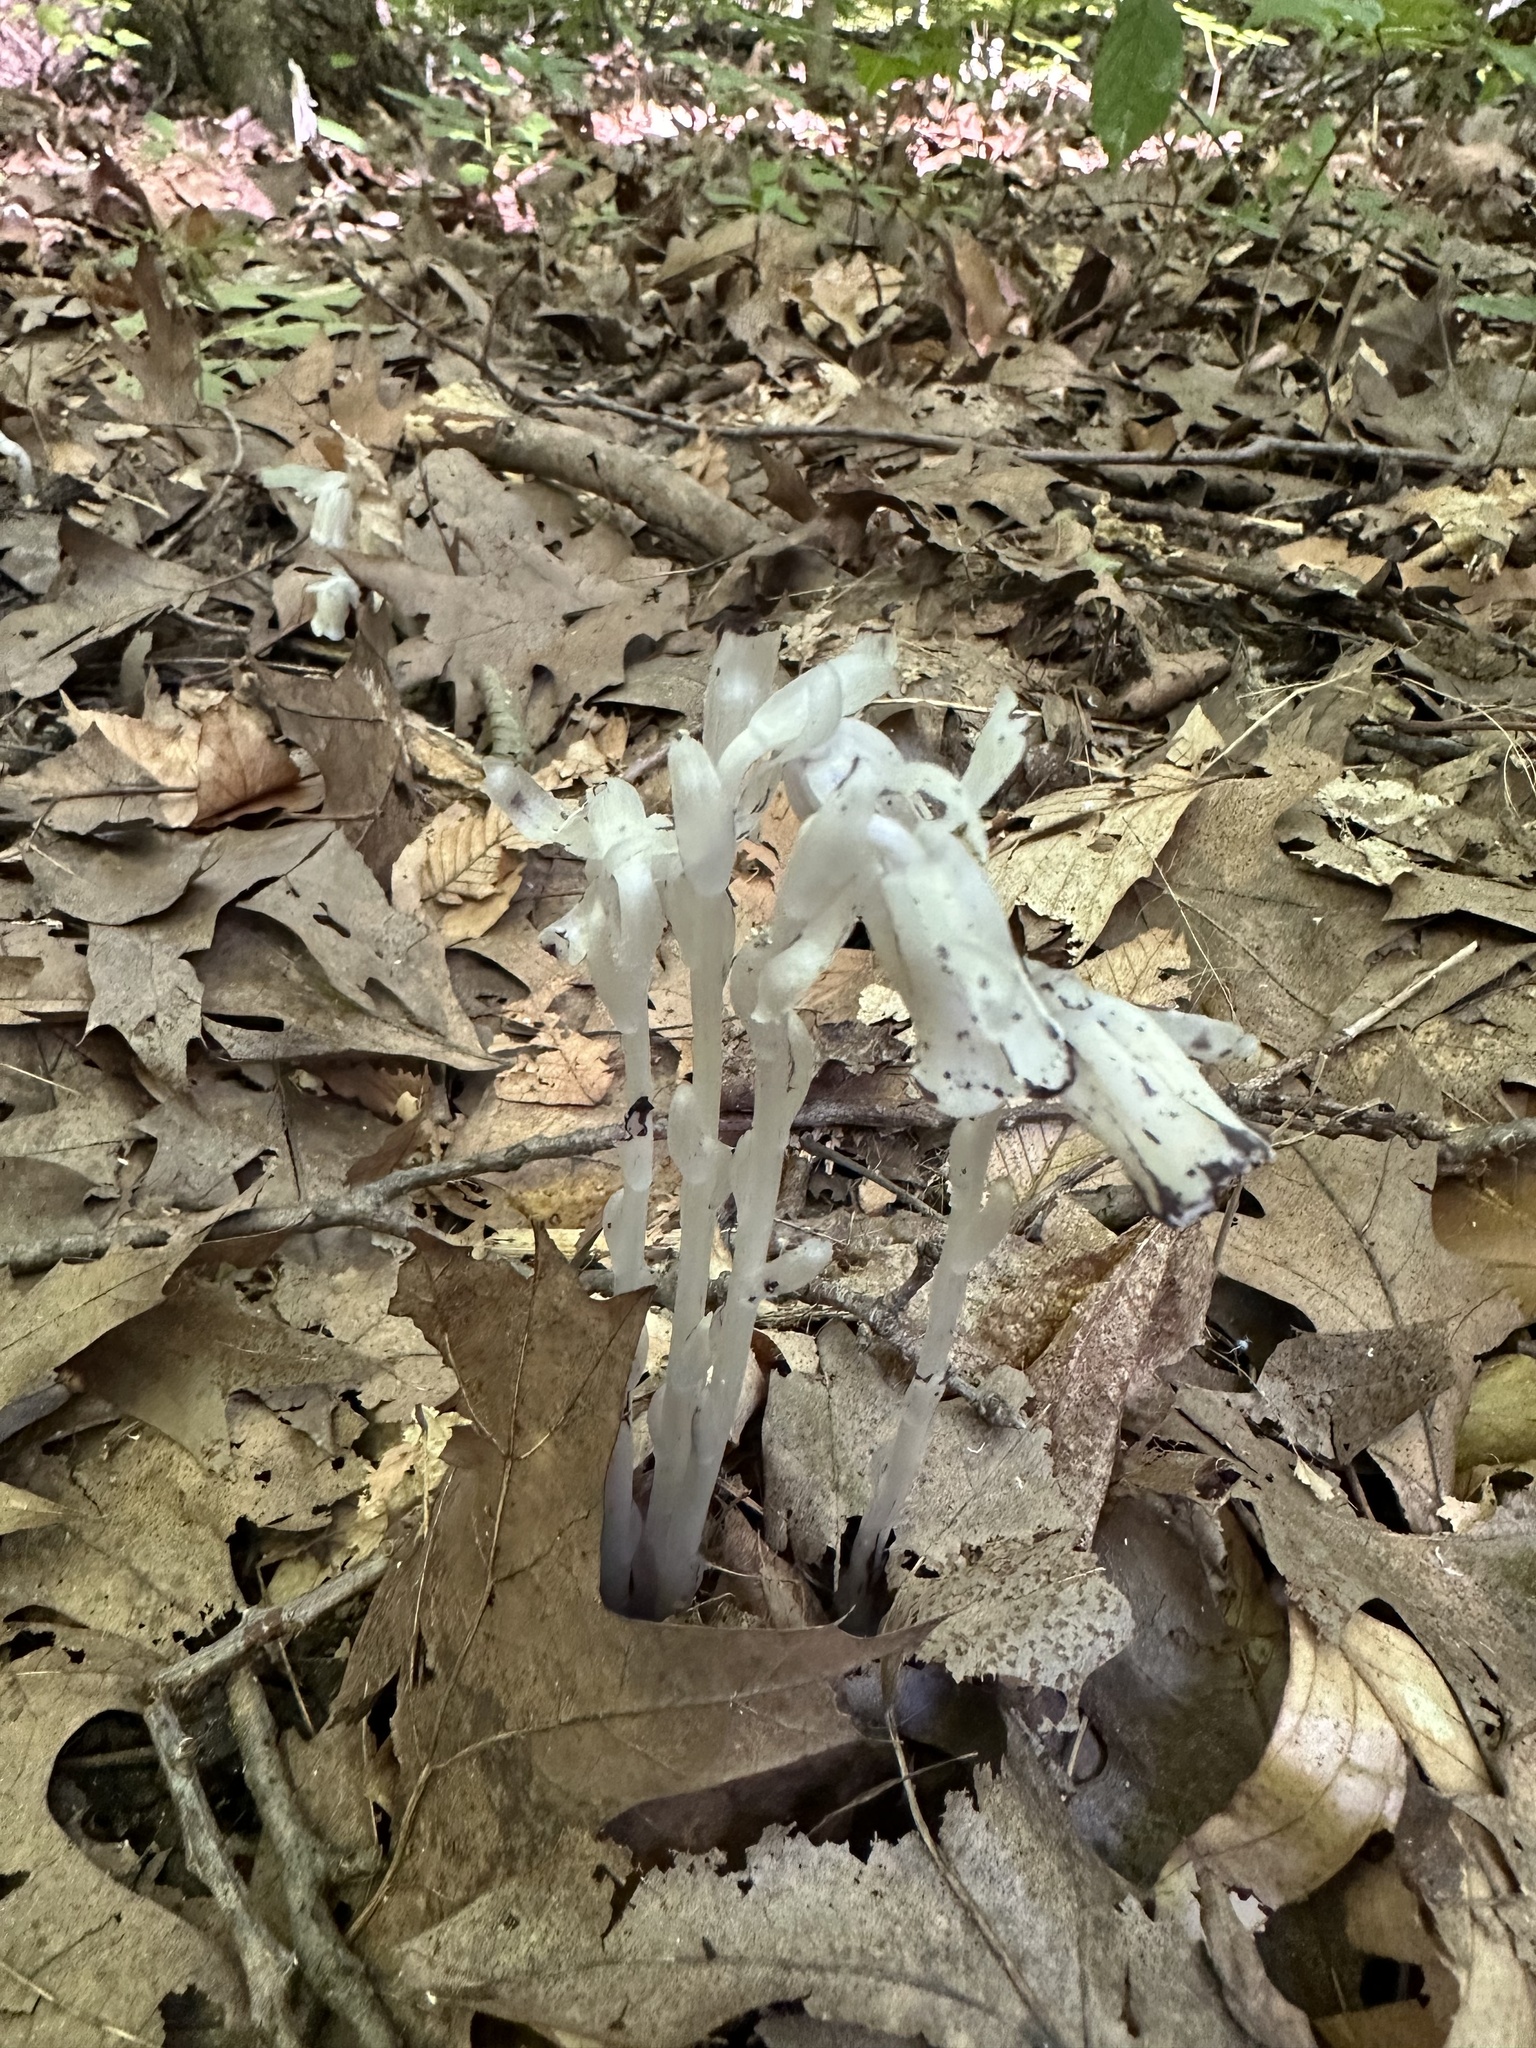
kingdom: Plantae
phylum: Tracheophyta
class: Magnoliopsida
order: Ericales
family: Ericaceae
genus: Monotropa
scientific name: Monotropa uniflora
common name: Convulsion root
